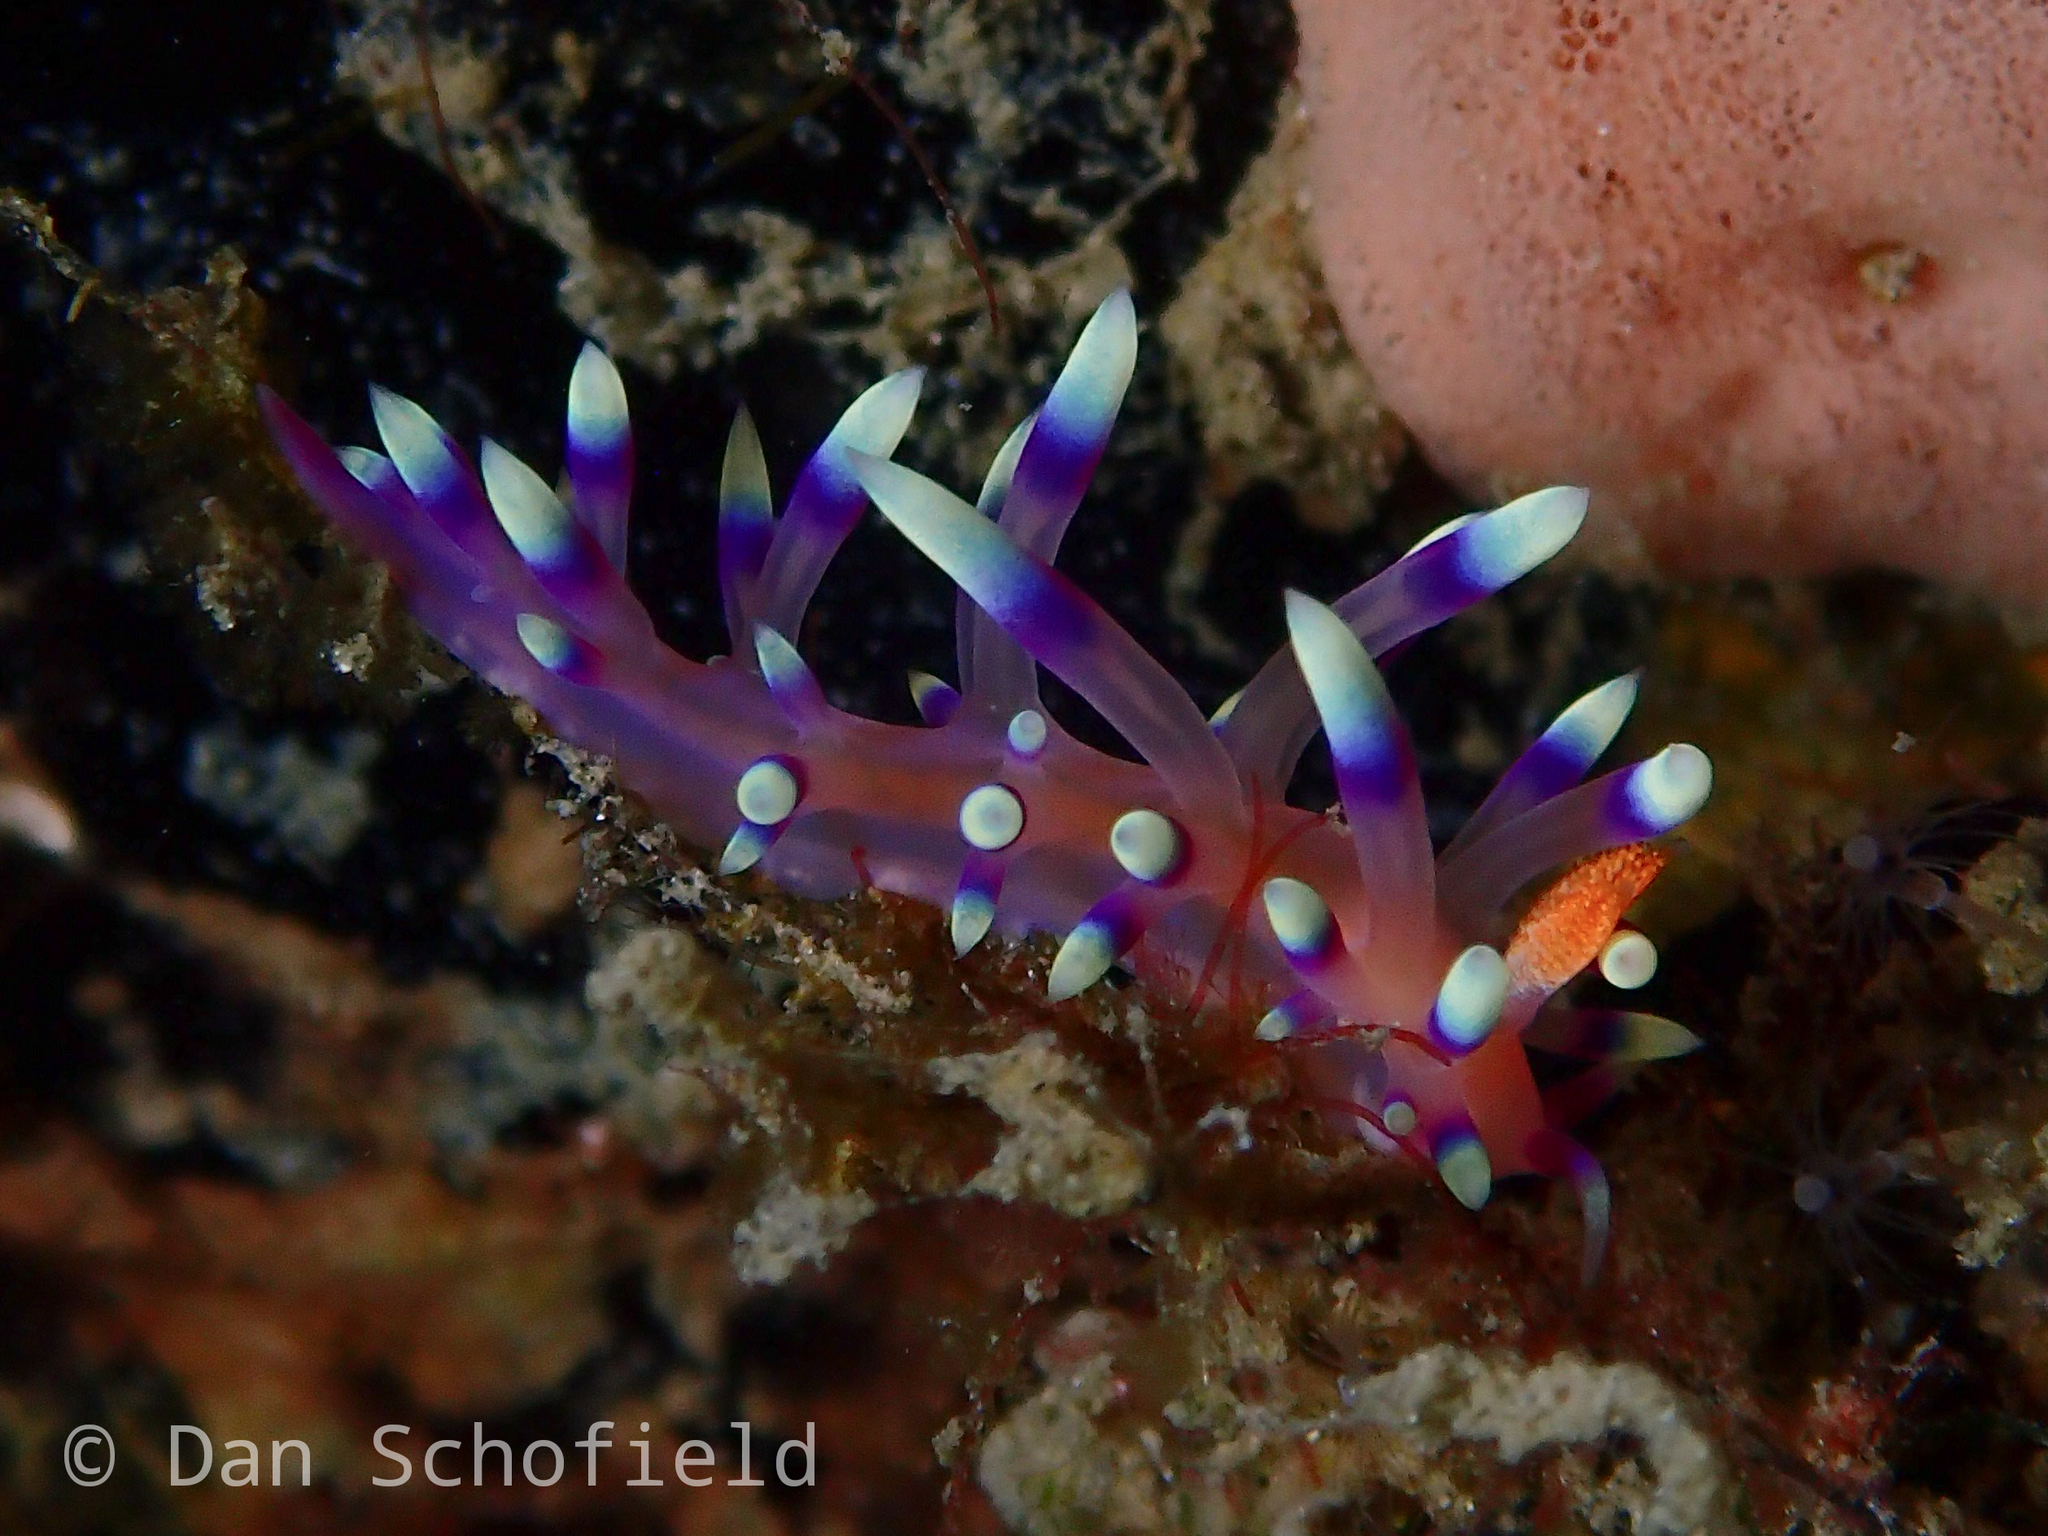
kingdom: Animalia
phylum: Mollusca
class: Gastropoda
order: Nudibranchia
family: Flabellinidae
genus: Coryphellina
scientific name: Coryphellina exoptata
